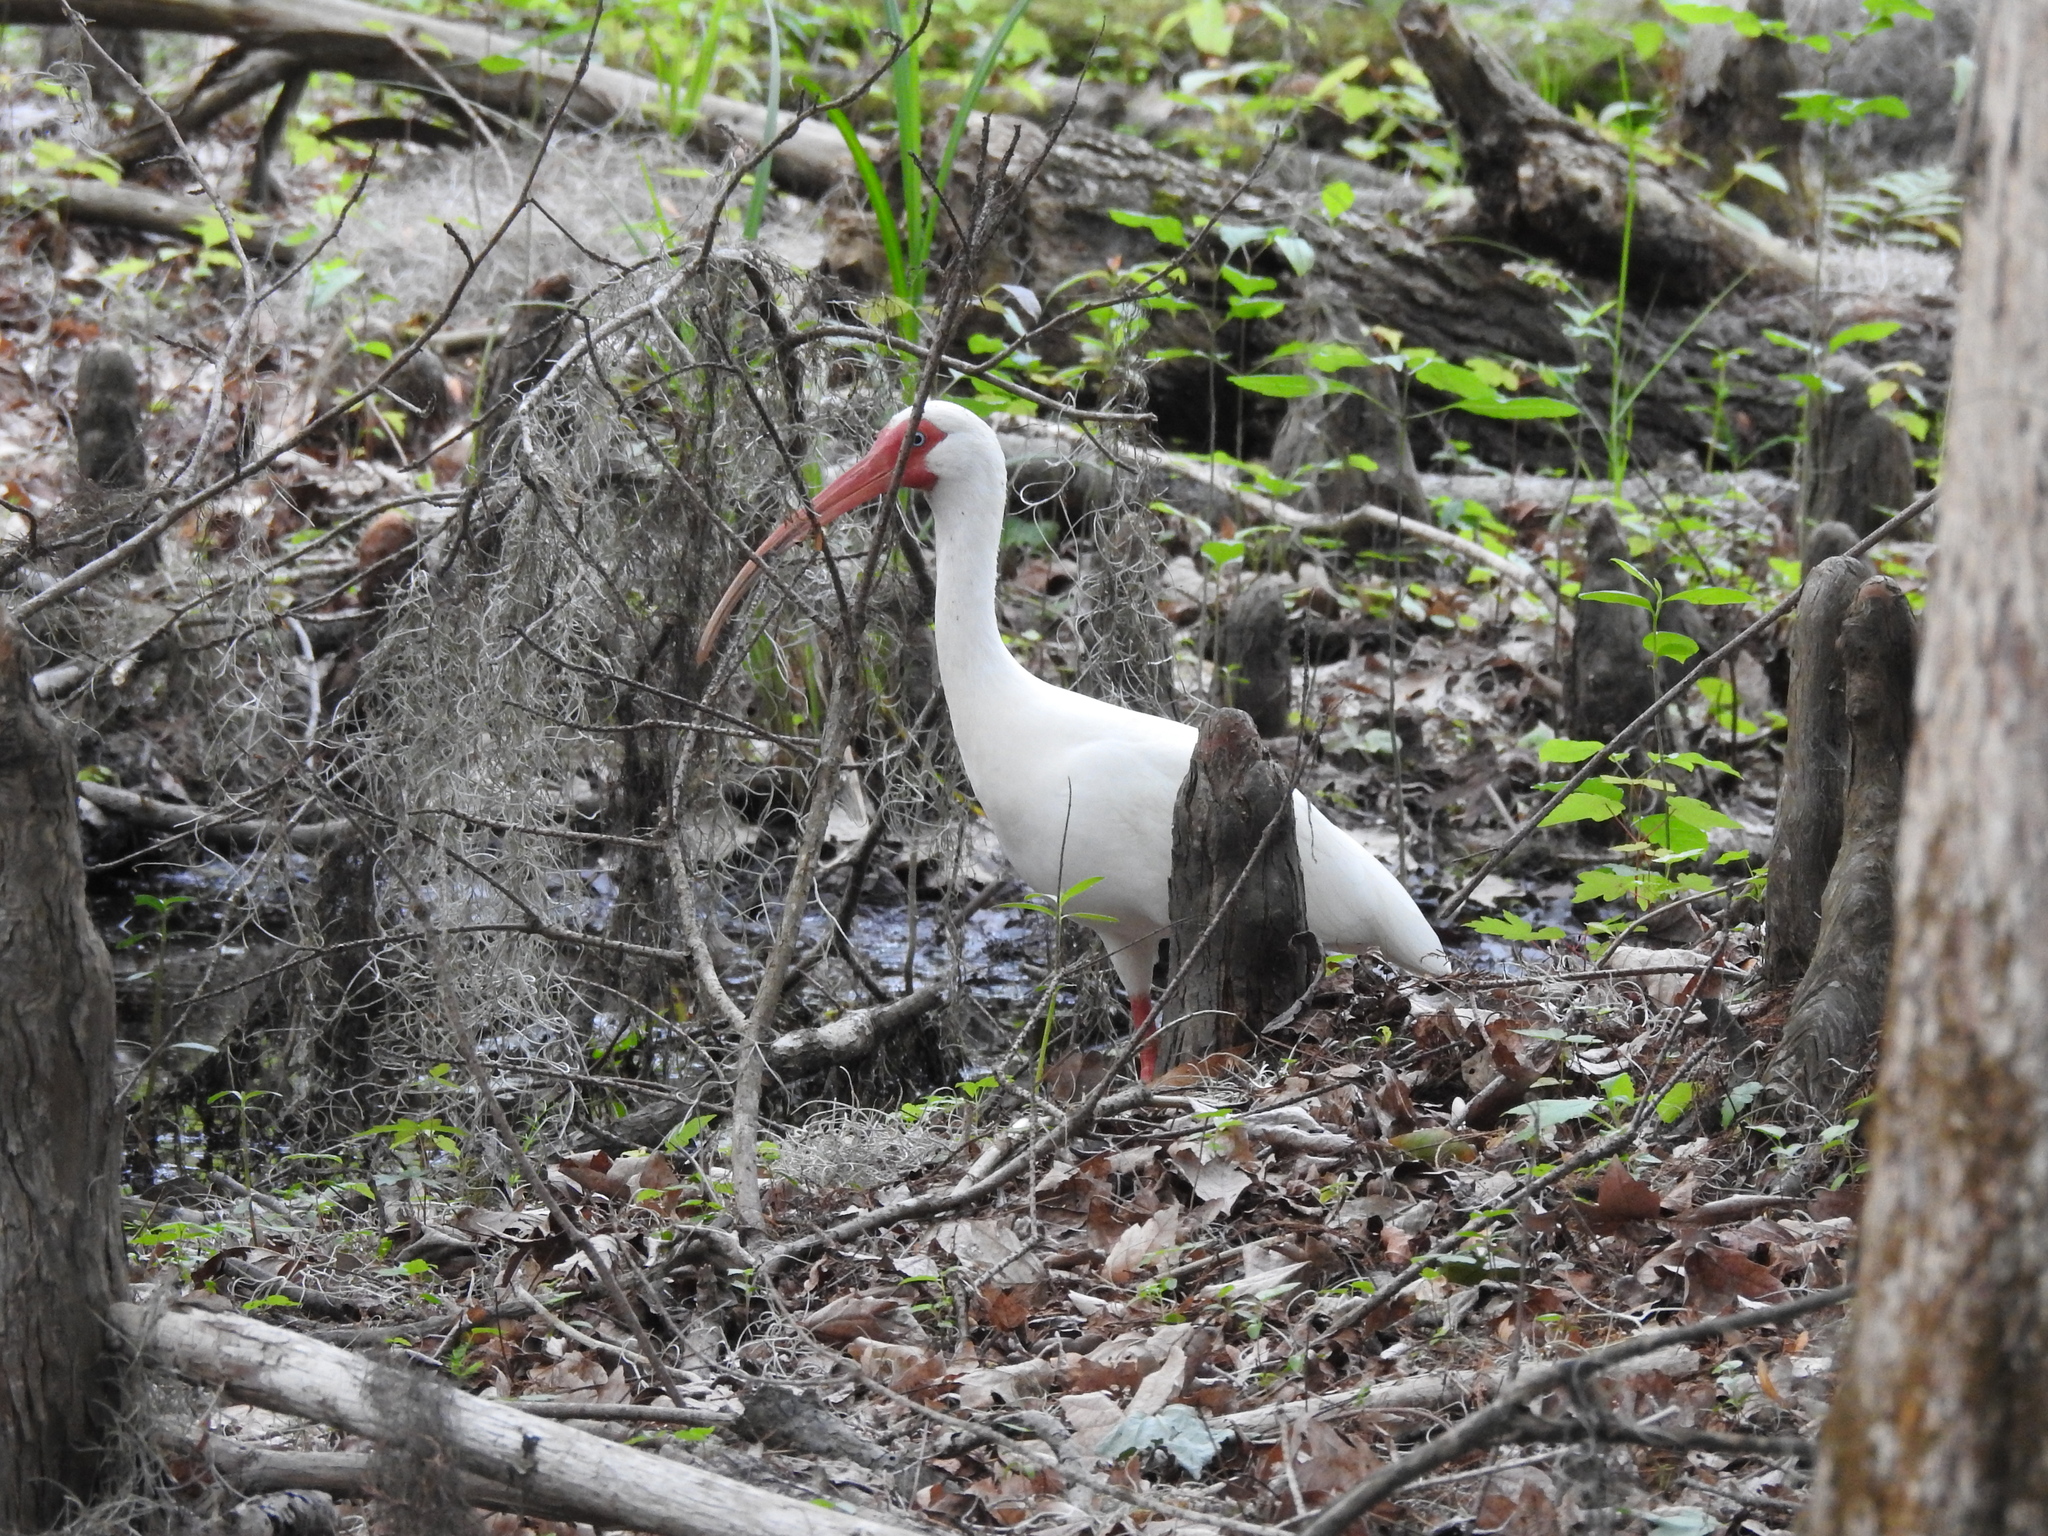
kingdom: Animalia
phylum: Chordata
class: Aves
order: Pelecaniformes
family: Threskiornithidae
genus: Eudocimus
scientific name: Eudocimus albus
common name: White ibis
